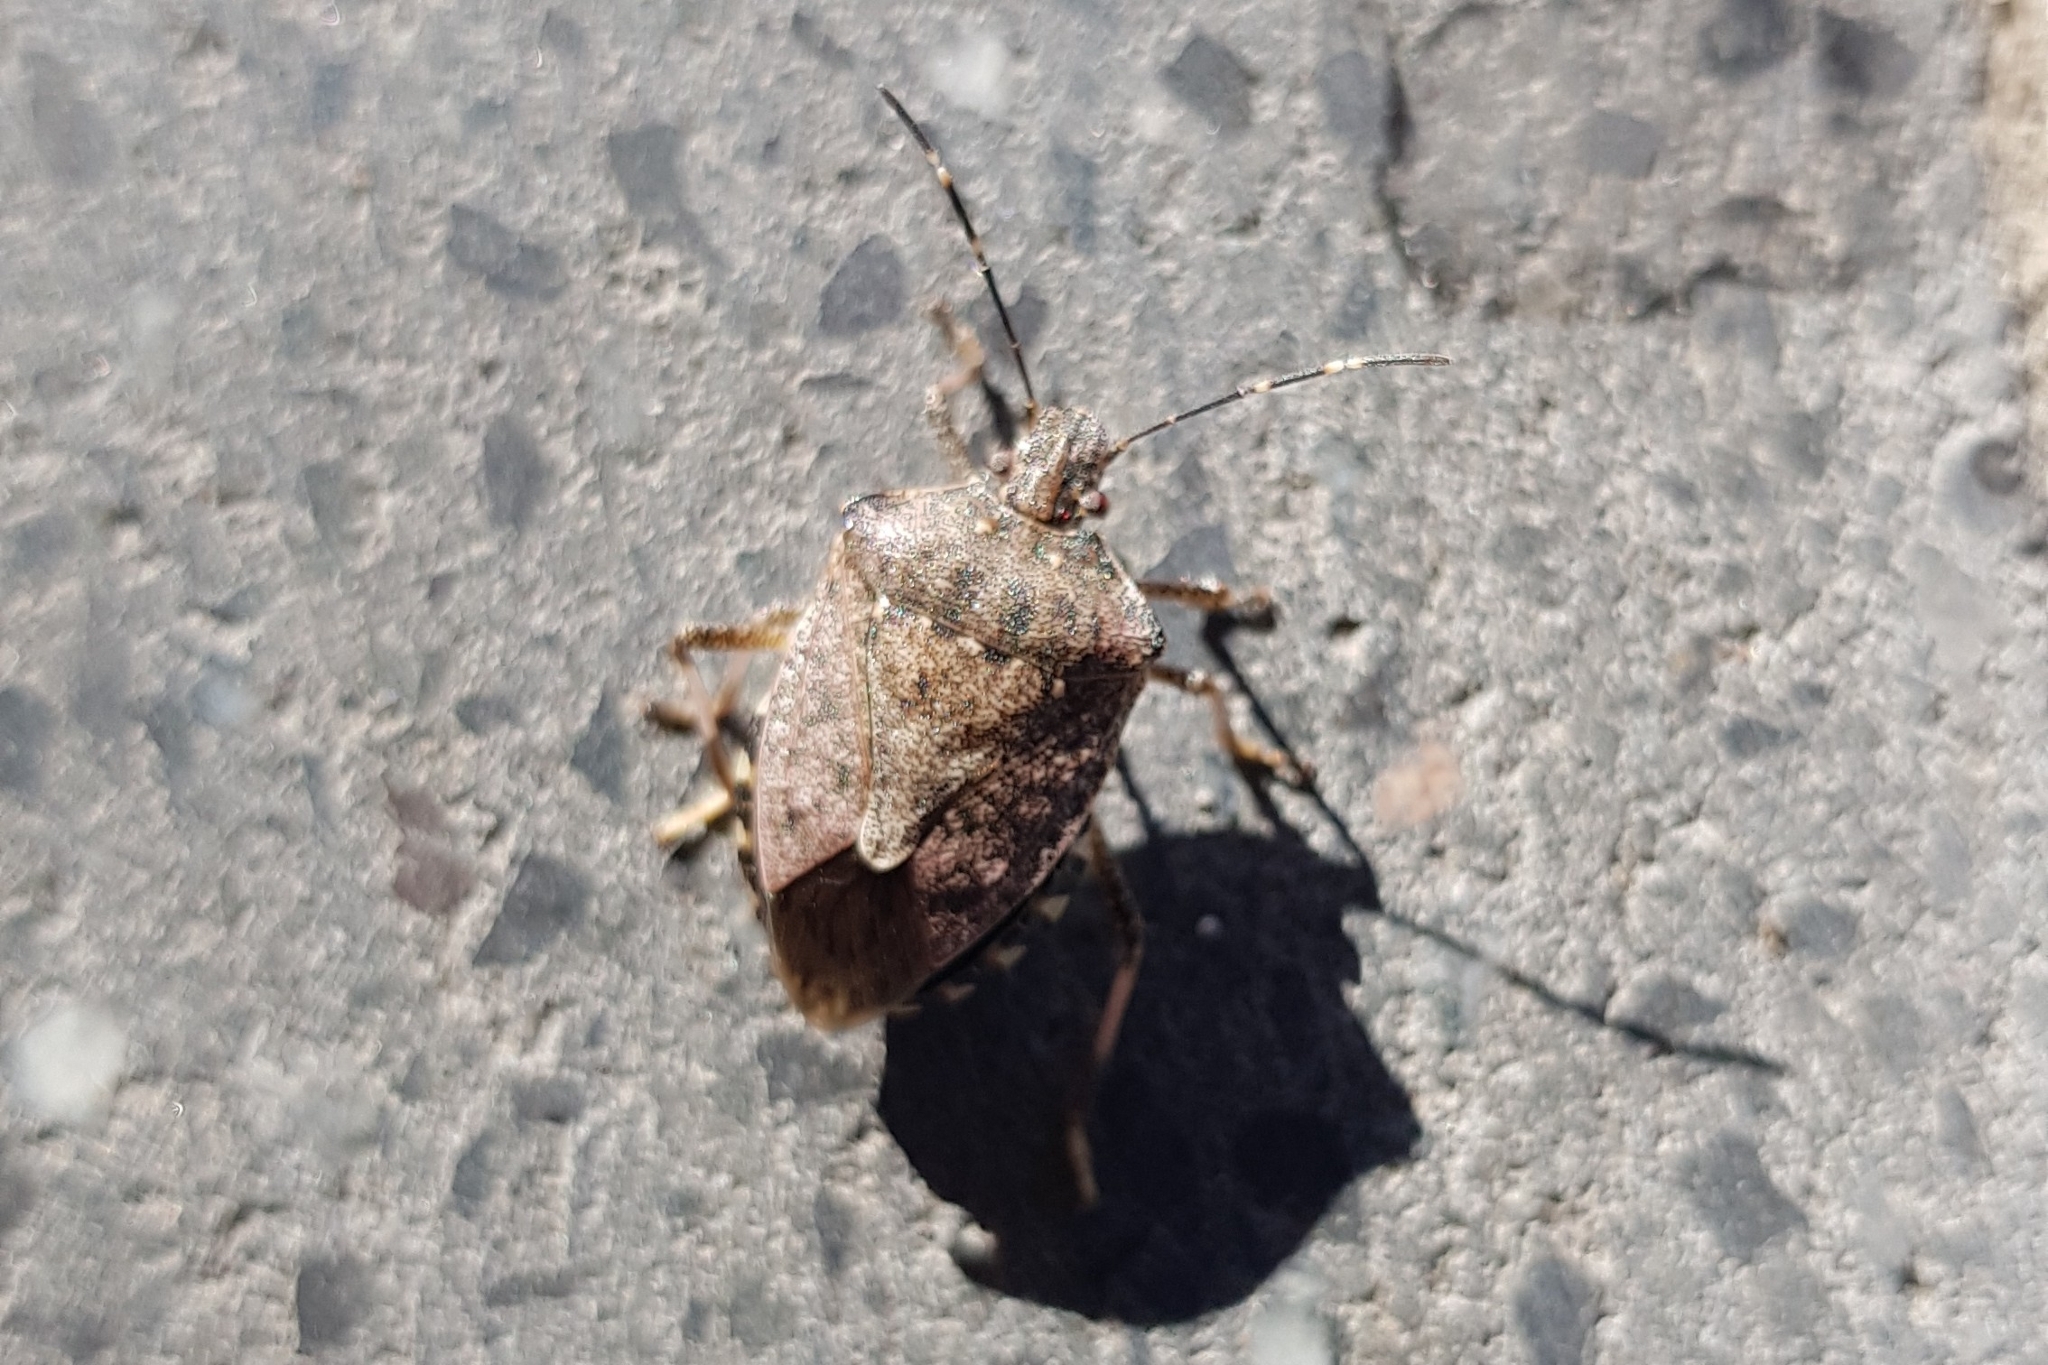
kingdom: Animalia
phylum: Arthropoda
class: Insecta
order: Hemiptera
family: Pentatomidae
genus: Halyomorpha
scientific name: Halyomorpha halys
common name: Brown marmorated stink bug
